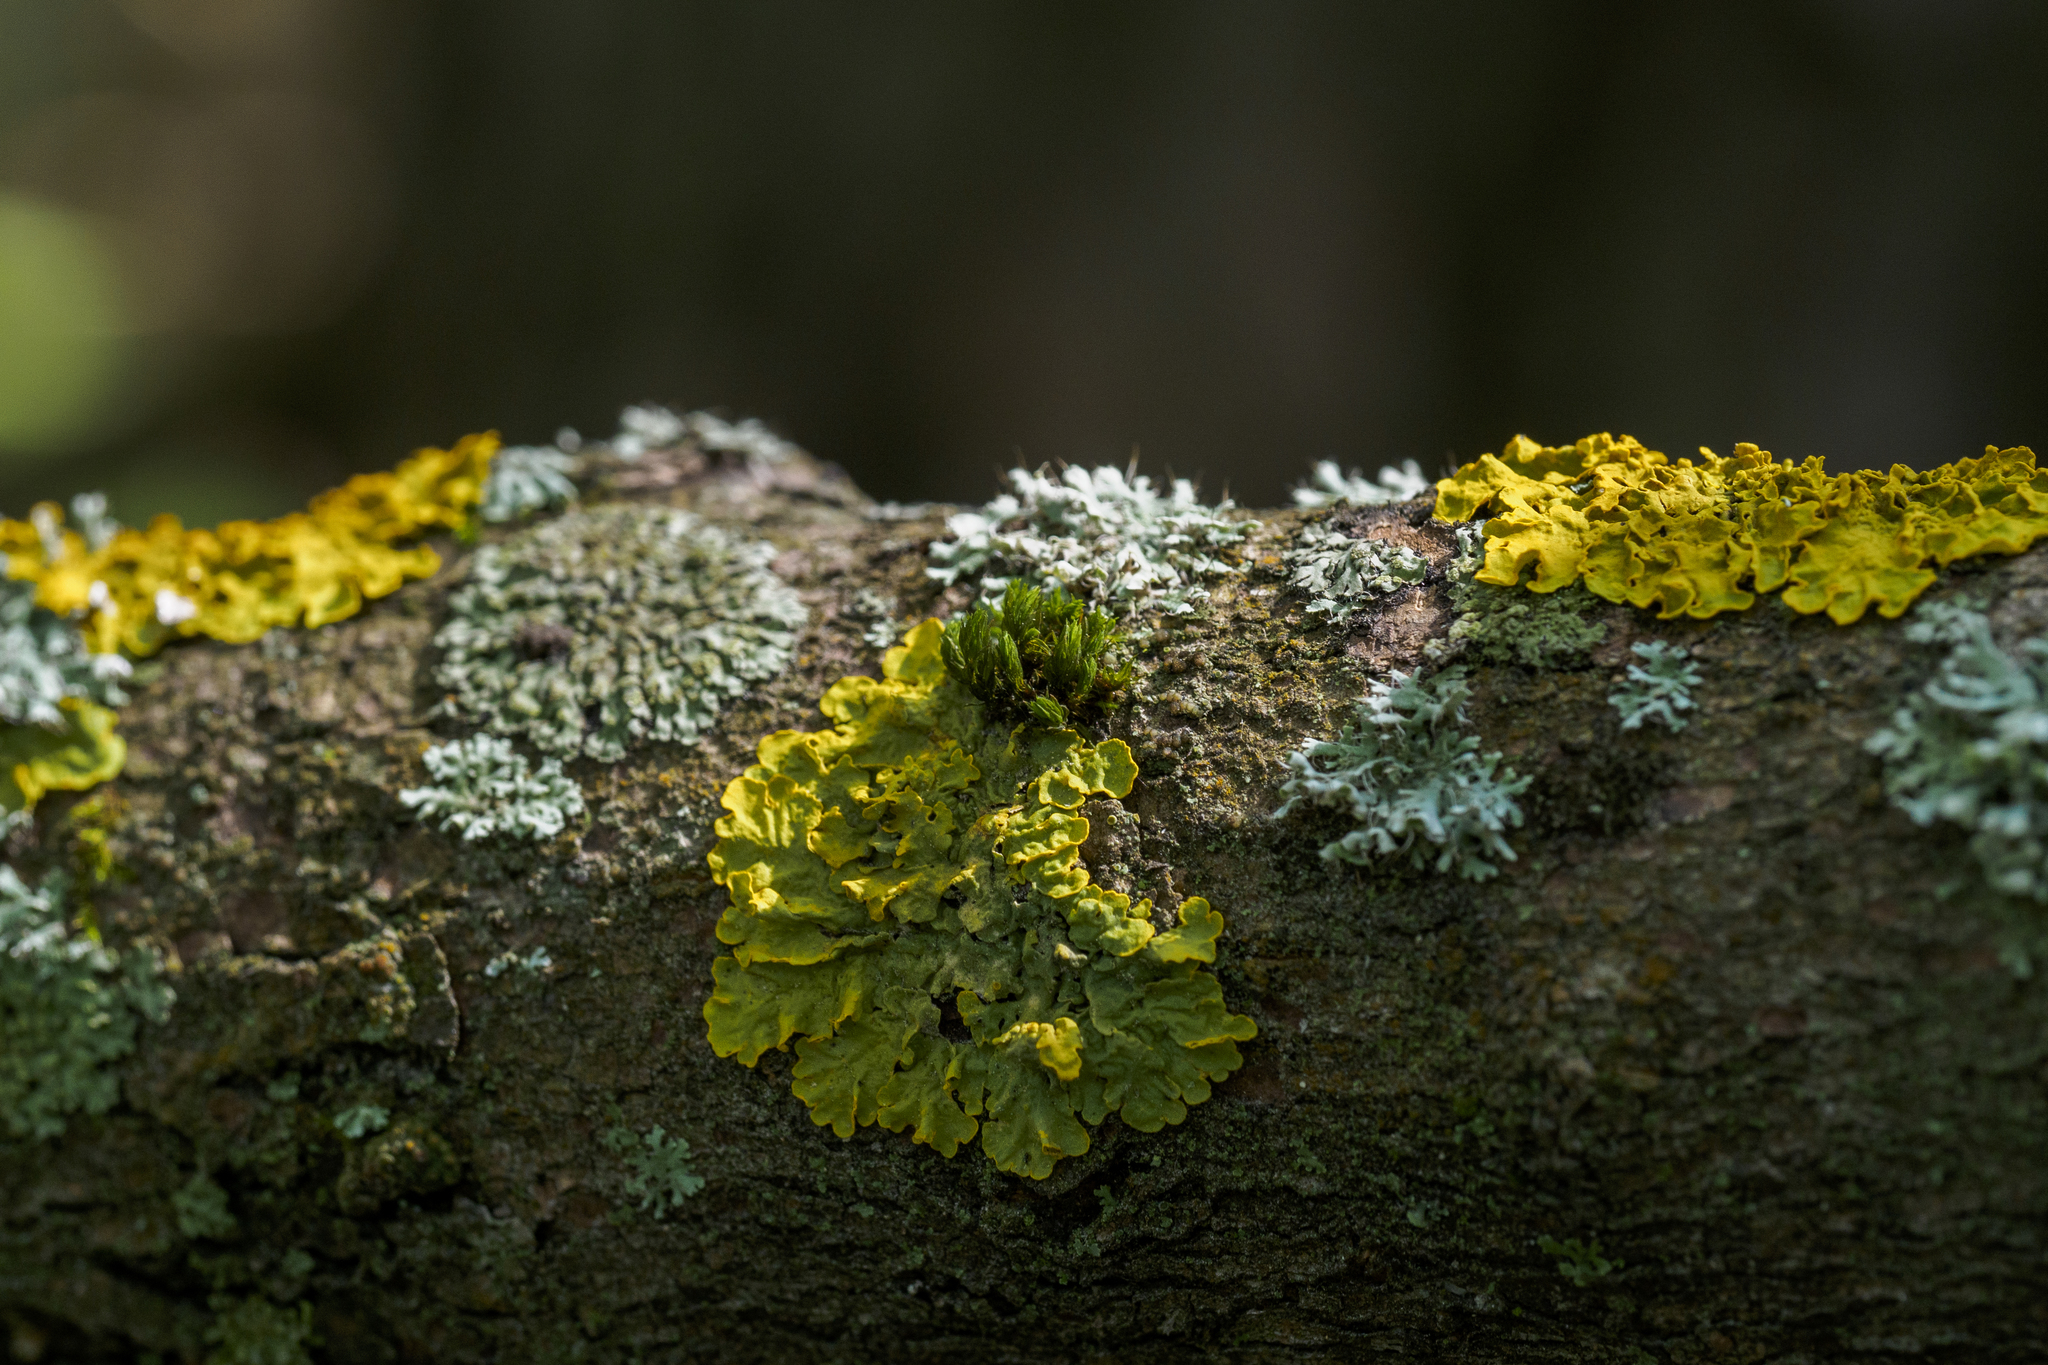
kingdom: Fungi
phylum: Ascomycota
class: Lecanoromycetes
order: Teloschistales
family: Teloschistaceae
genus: Xanthoria
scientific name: Xanthoria parietina
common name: Common orange lichen
